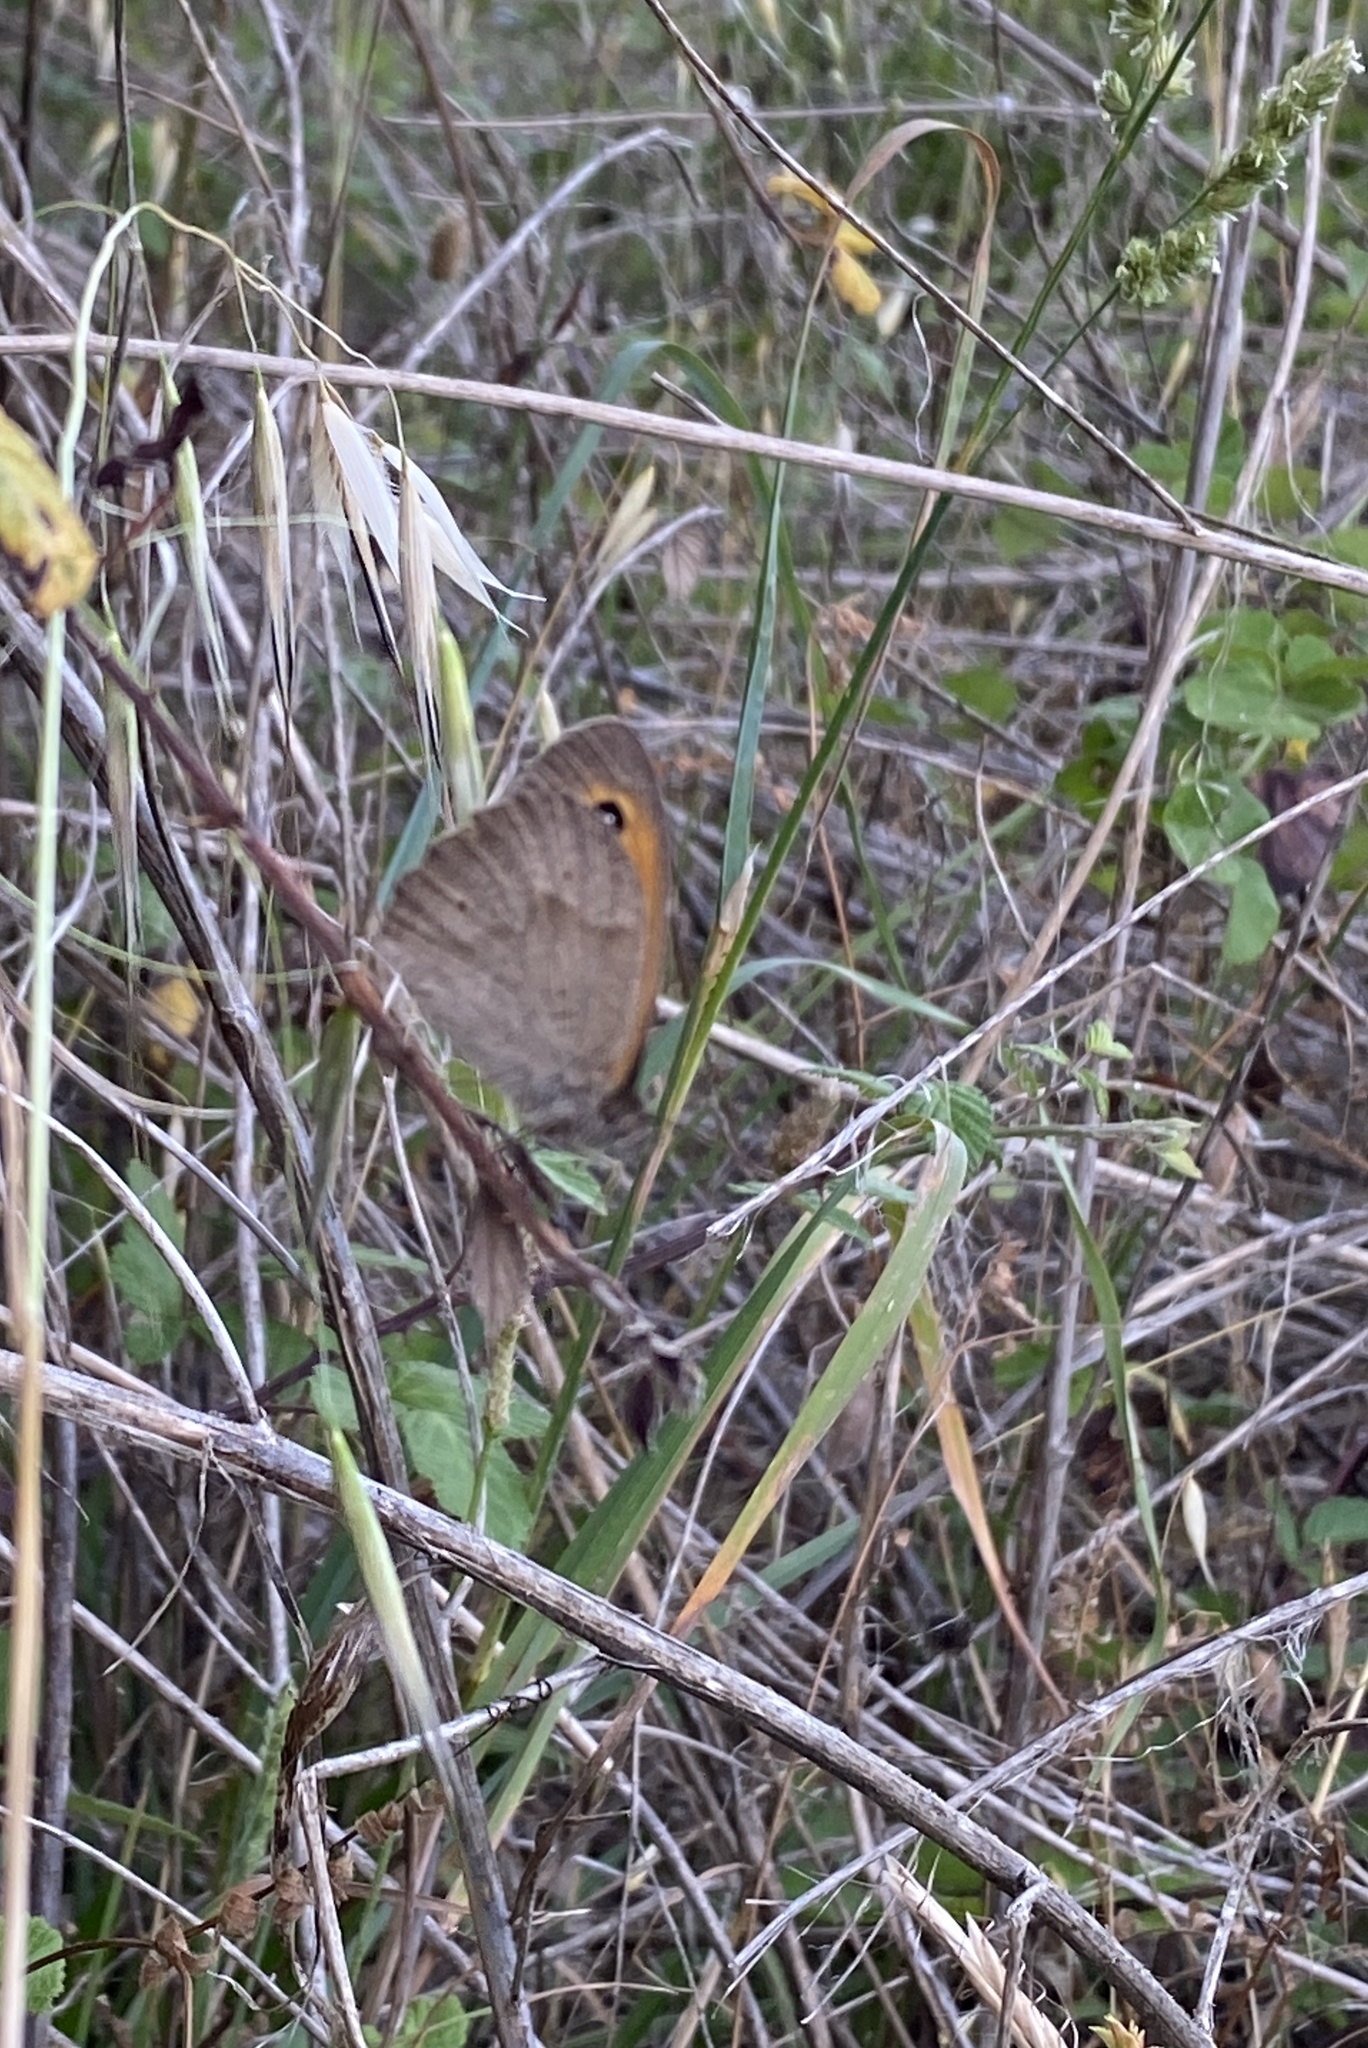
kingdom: Animalia
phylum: Arthropoda
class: Insecta
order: Lepidoptera
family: Nymphalidae
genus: Maniola
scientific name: Maniola jurtina
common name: Meadow brown
